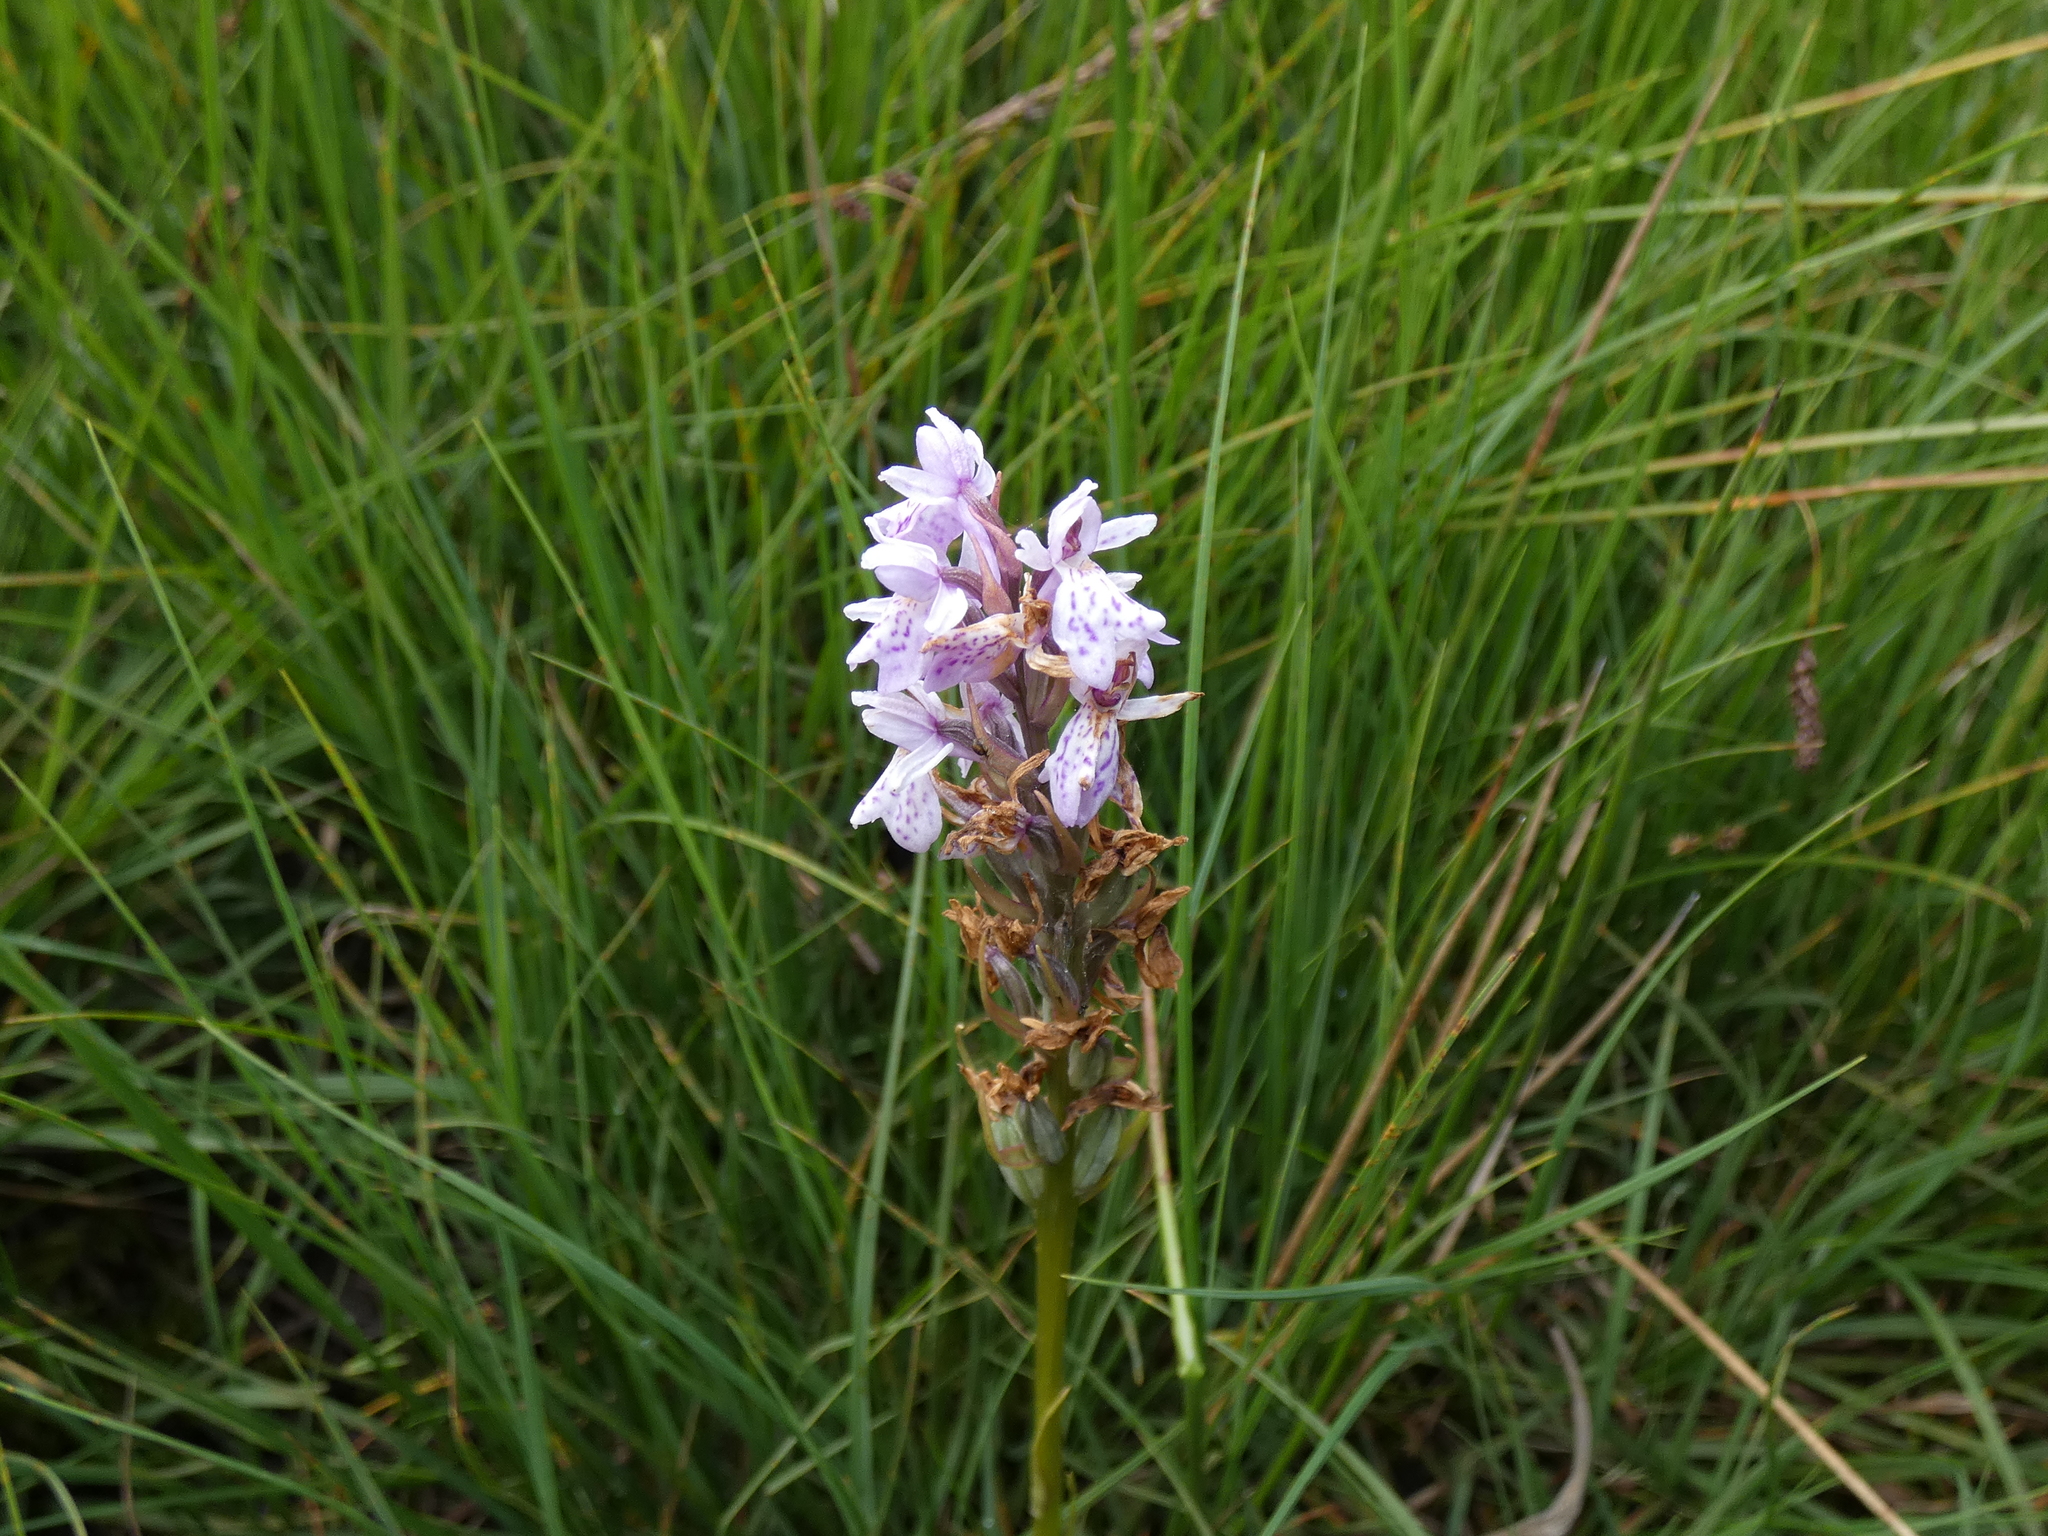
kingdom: Plantae
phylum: Tracheophyta
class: Liliopsida
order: Asparagales
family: Orchidaceae
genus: Dactylorhiza
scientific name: Dactylorhiza maculata
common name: Heath spotted-orchid
